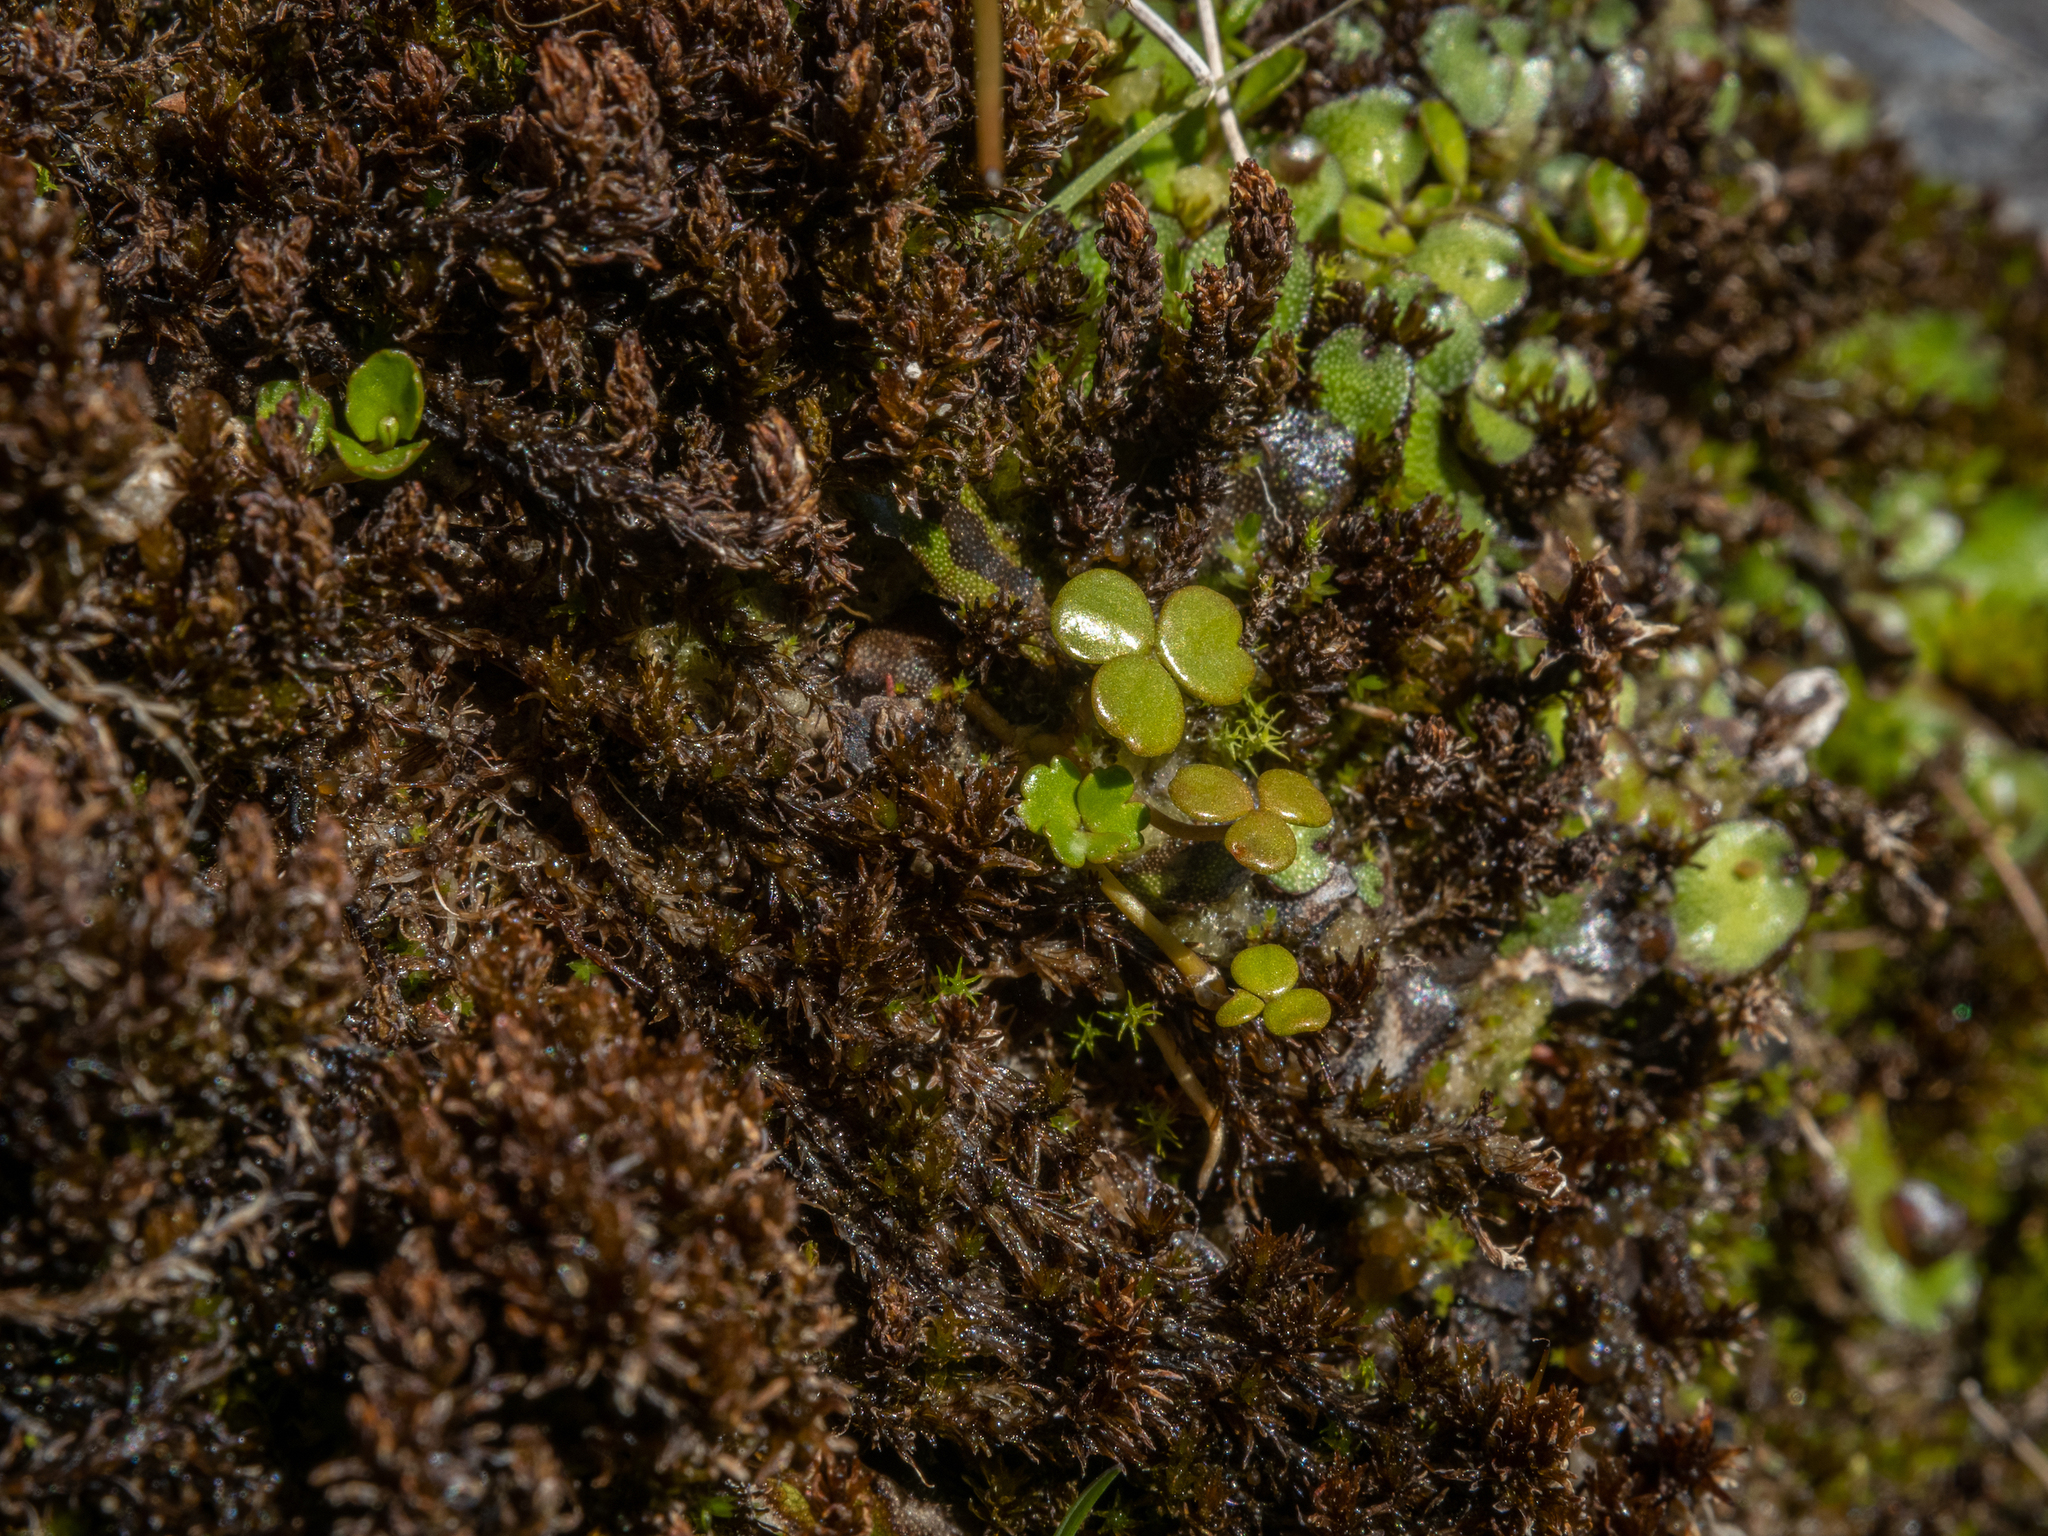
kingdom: Plantae
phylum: Tracheophyta
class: Magnoliopsida
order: Apiales
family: Araliaceae
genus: Hydrocotyle
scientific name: Hydrocotyle sulcata
